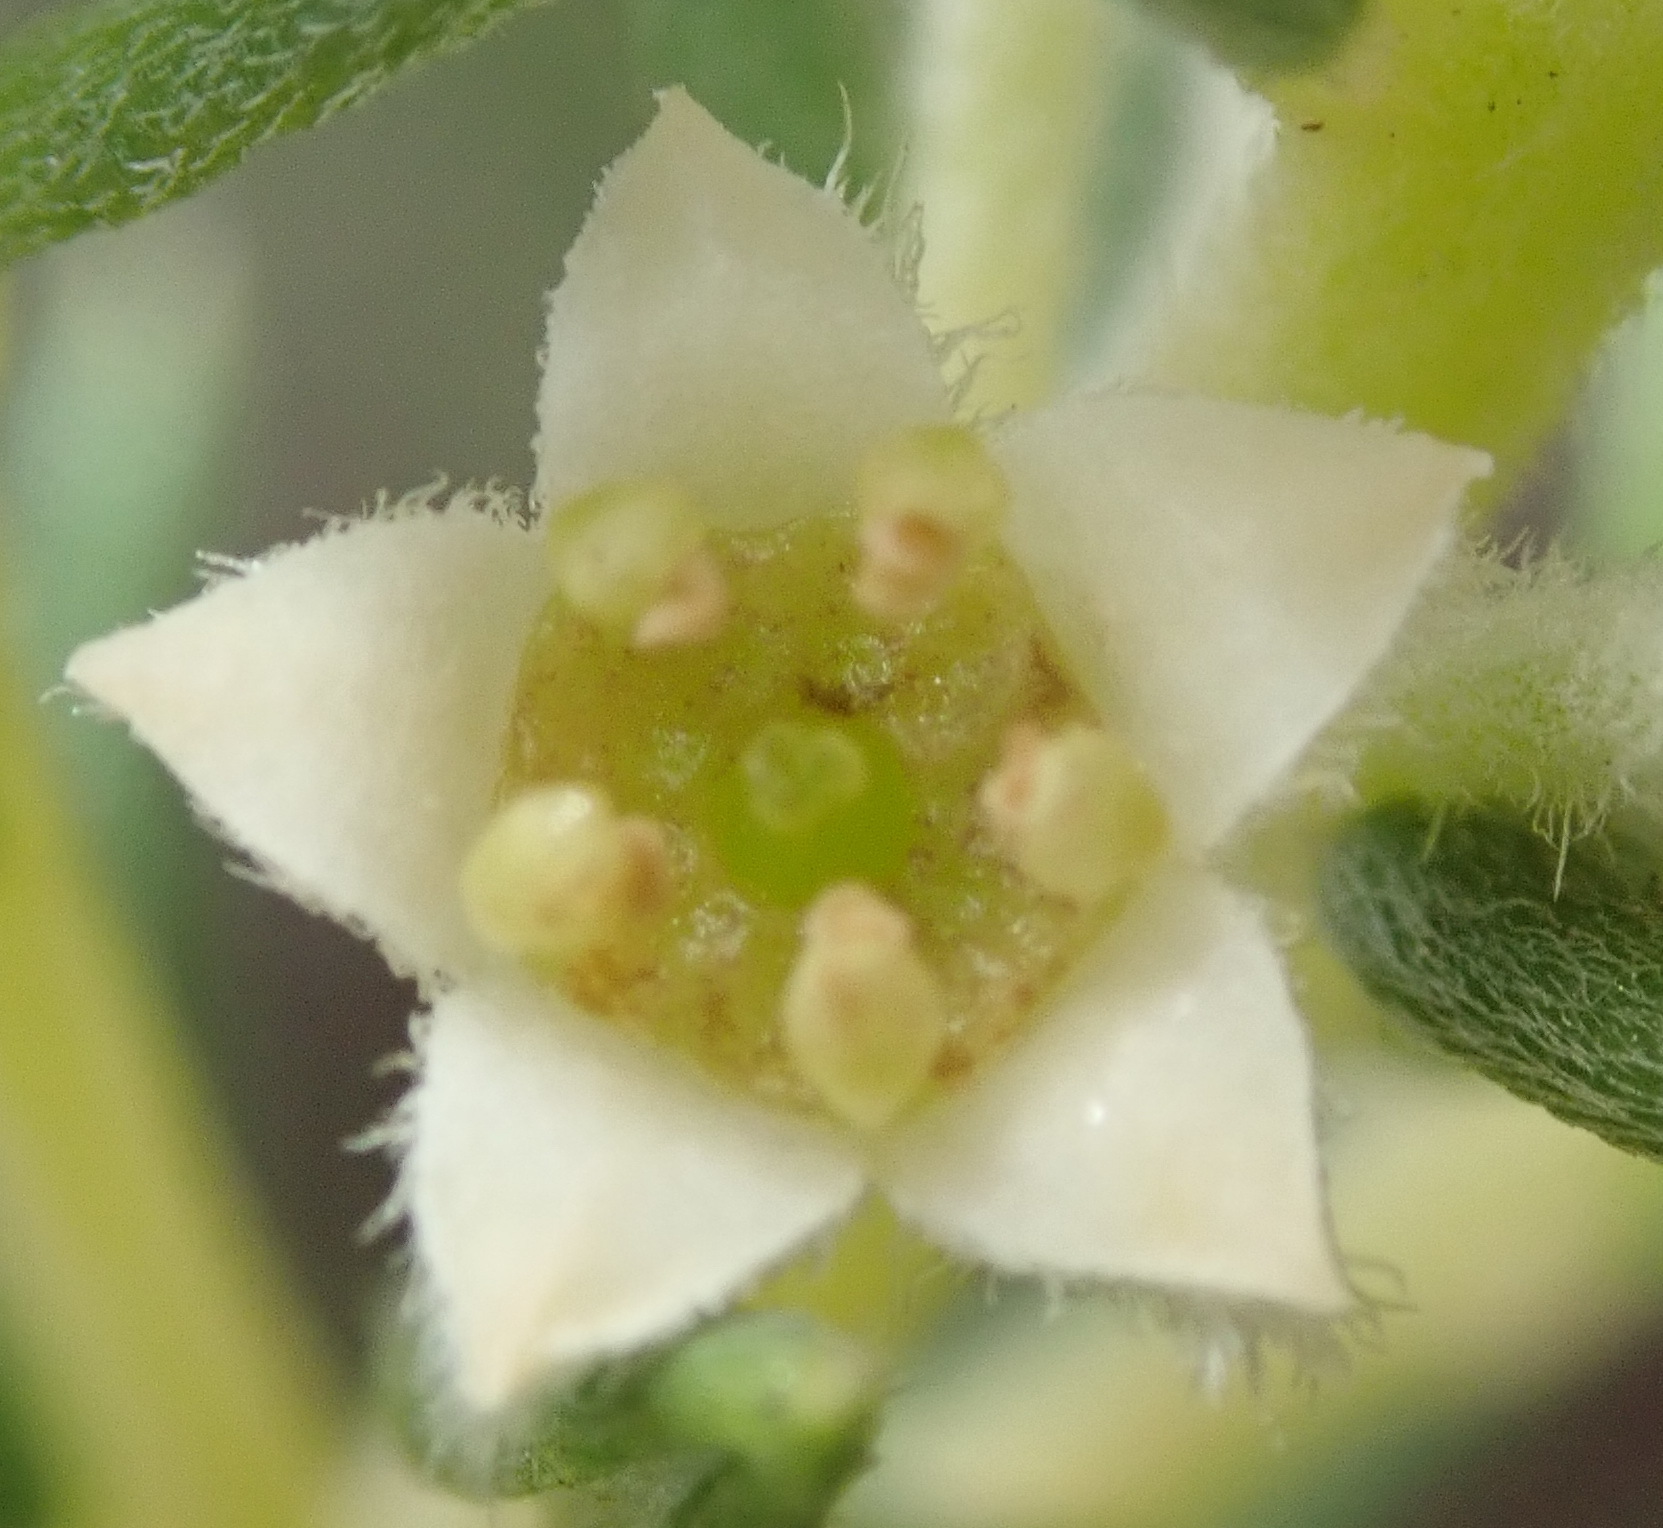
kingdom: Plantae
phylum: Tracheophyta
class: Magnoliopsida
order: Rosales
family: Rhamnaceae
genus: Phylica
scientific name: Phylica axillaris
